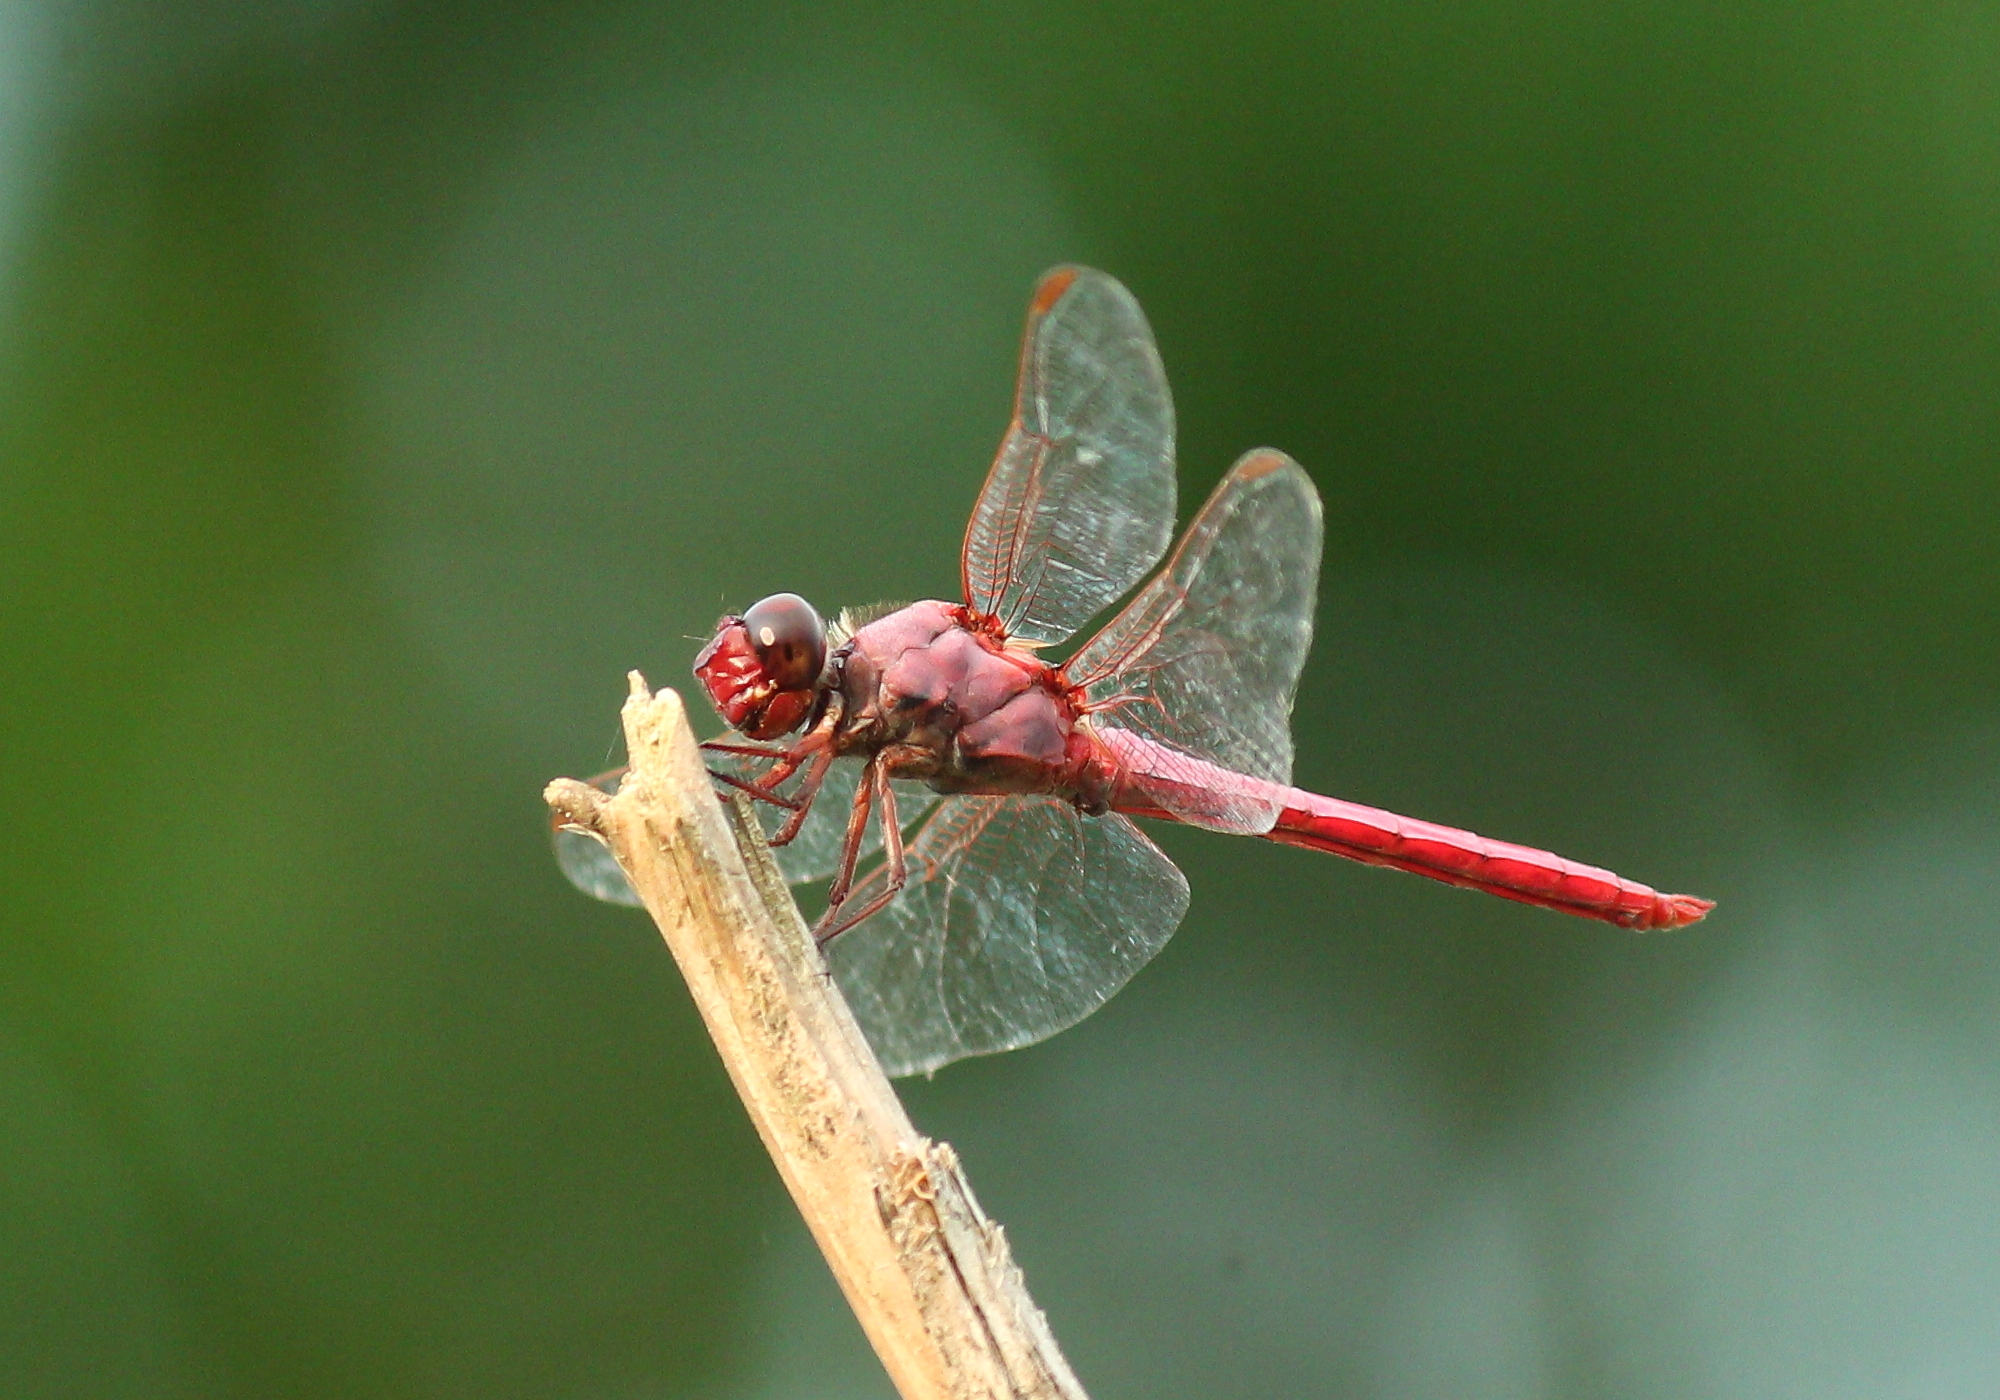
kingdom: Animalia
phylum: Arthropoda
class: Insecta
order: Odonata
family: Libellulidae
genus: Orthemis
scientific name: Orthemis ferruginea
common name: Roseate skimmer
